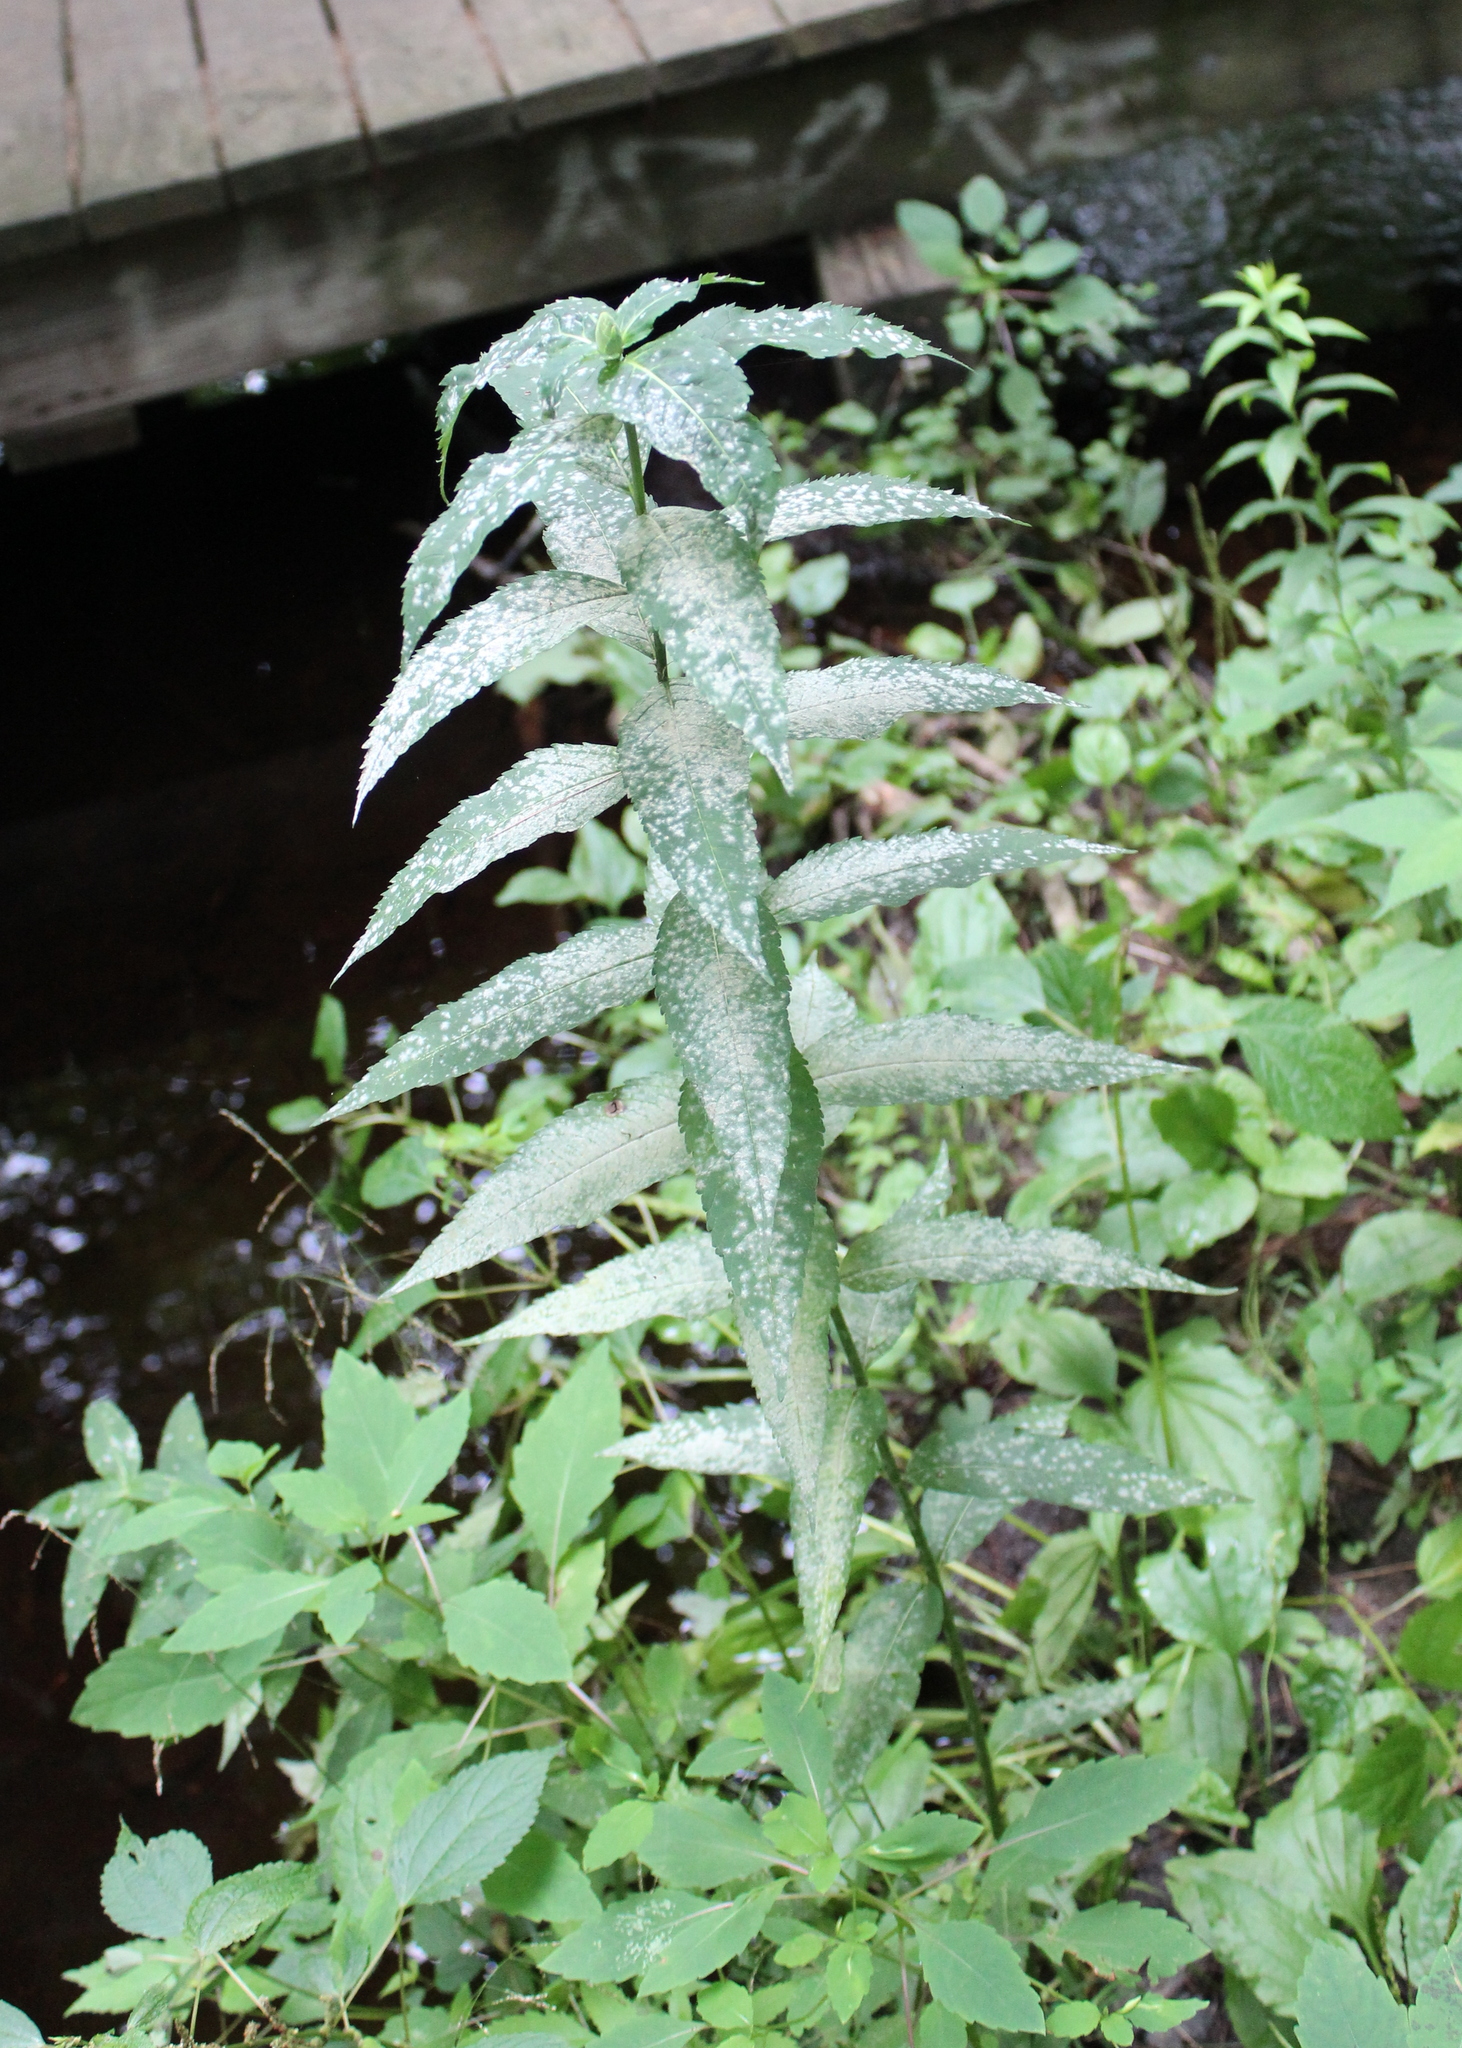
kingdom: Plantae
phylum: Tracheophyta
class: Magnoliopsida
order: Lamiales
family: Plantaginaceae
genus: Chelone
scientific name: Chelone glabra
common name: Snakehead
